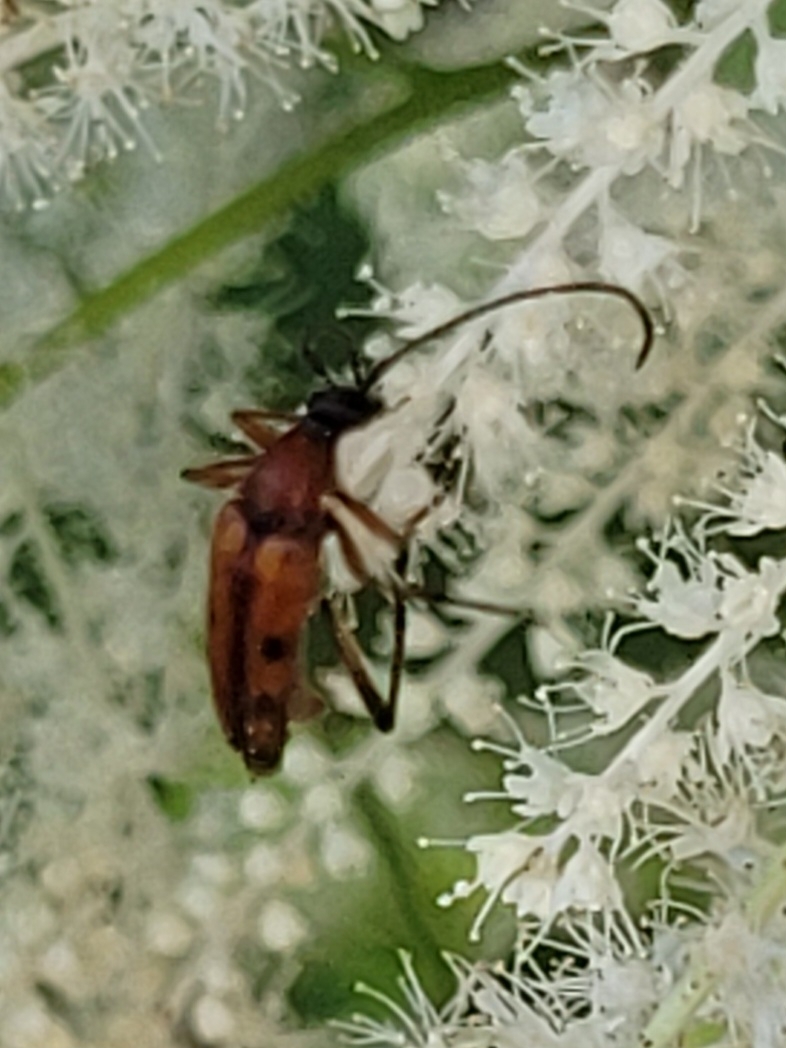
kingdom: Animalia
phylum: Arthropoda
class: Insecta
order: Coleoptera
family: Cerambycidae
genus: Stenurella
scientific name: Stenurella septempunctata
